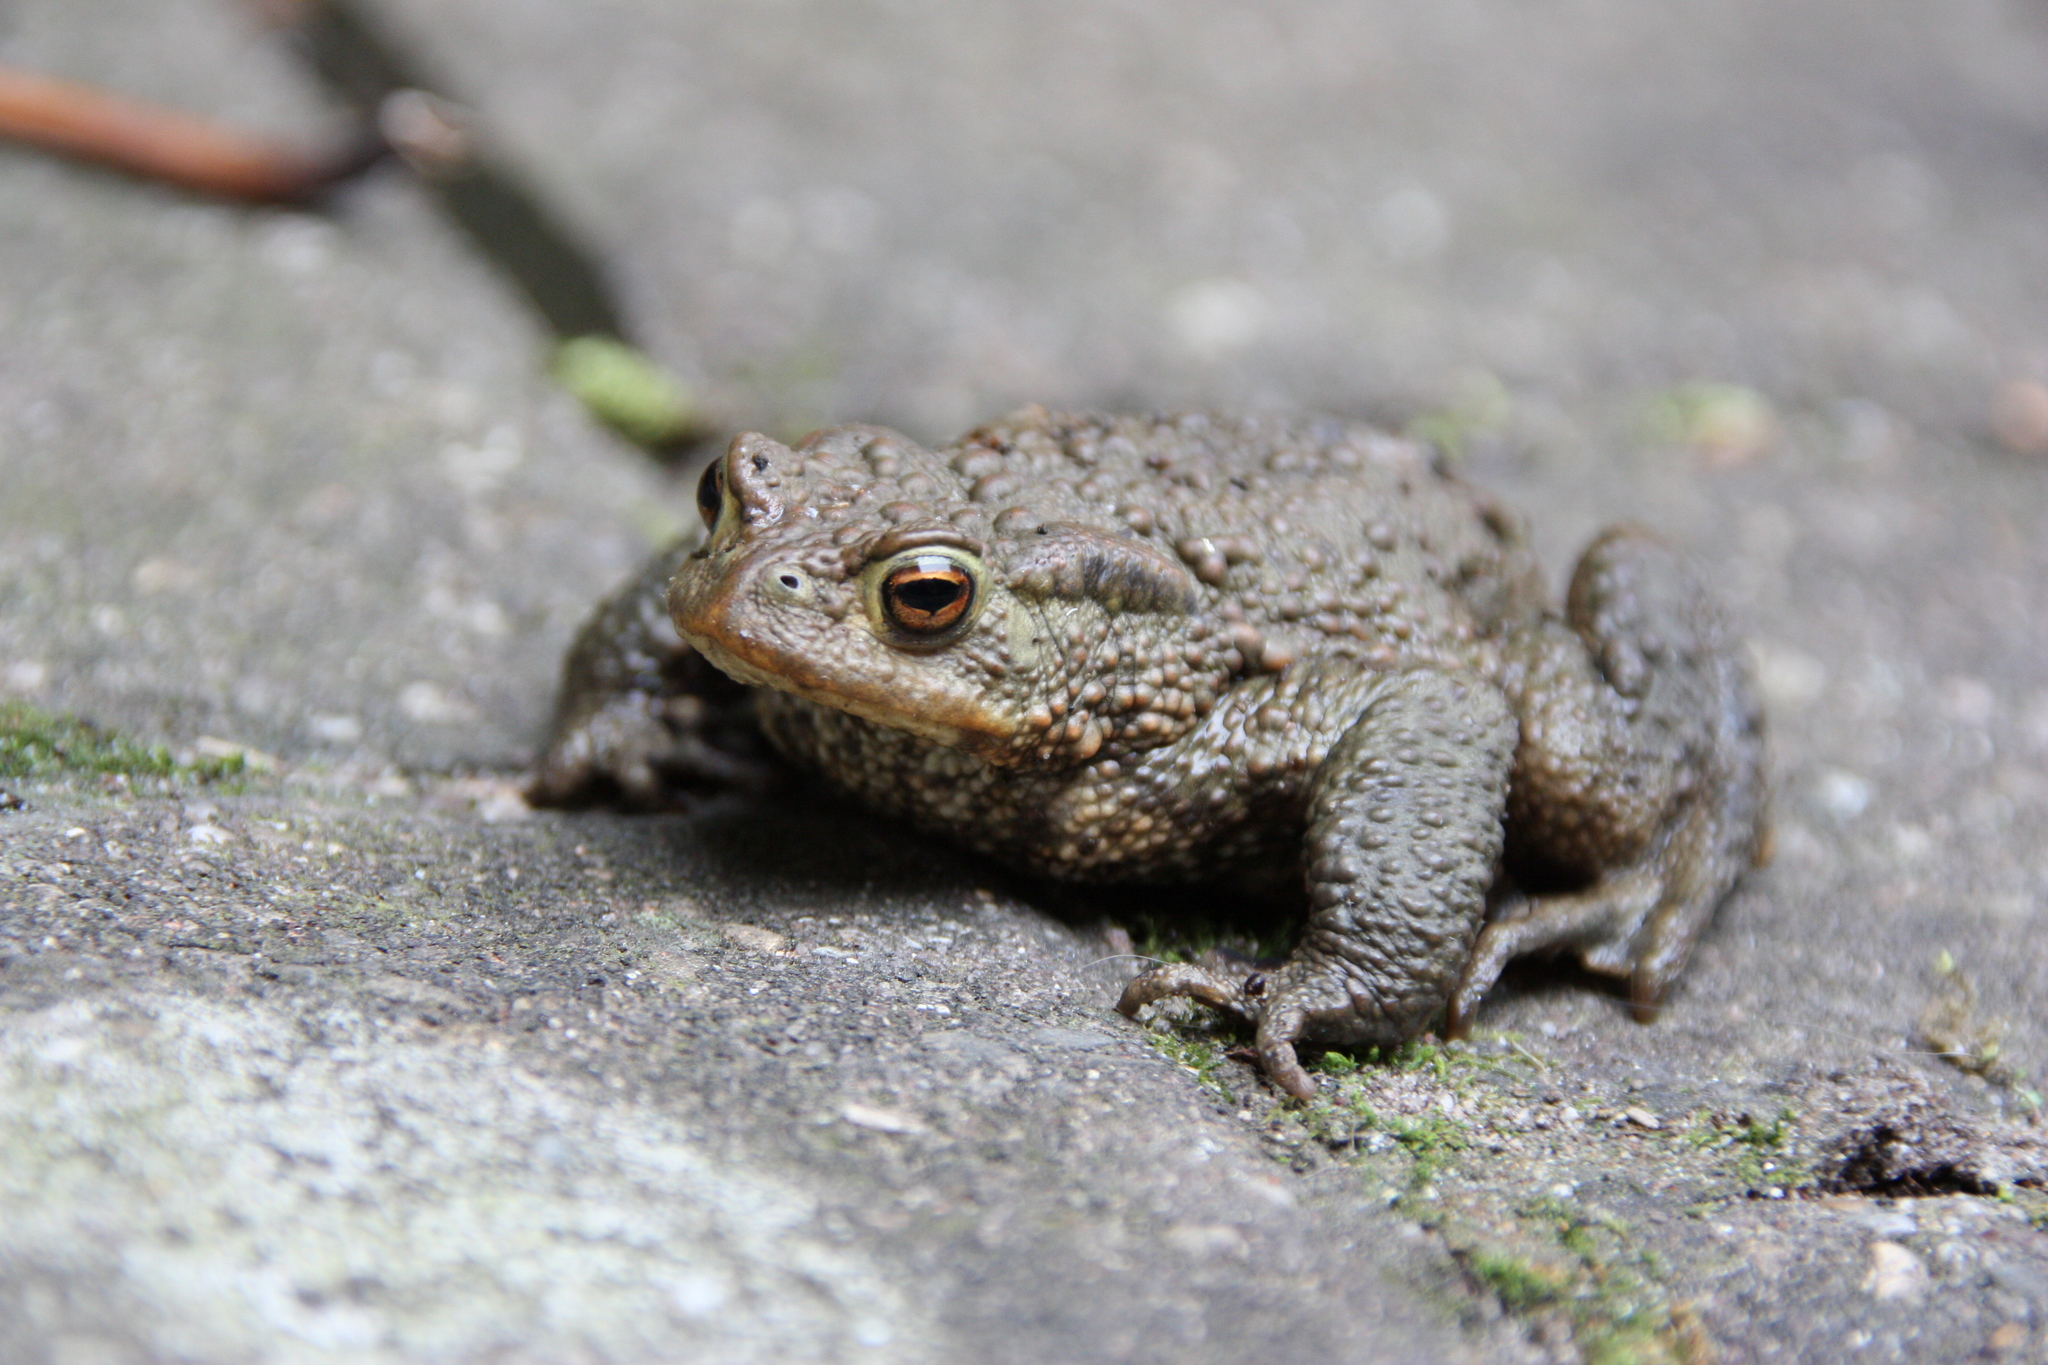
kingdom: Animalia
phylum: Chordata
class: Amphibia
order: Anura
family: Bufonidae
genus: Bufo
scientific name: Bufo bufo
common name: Common toad
